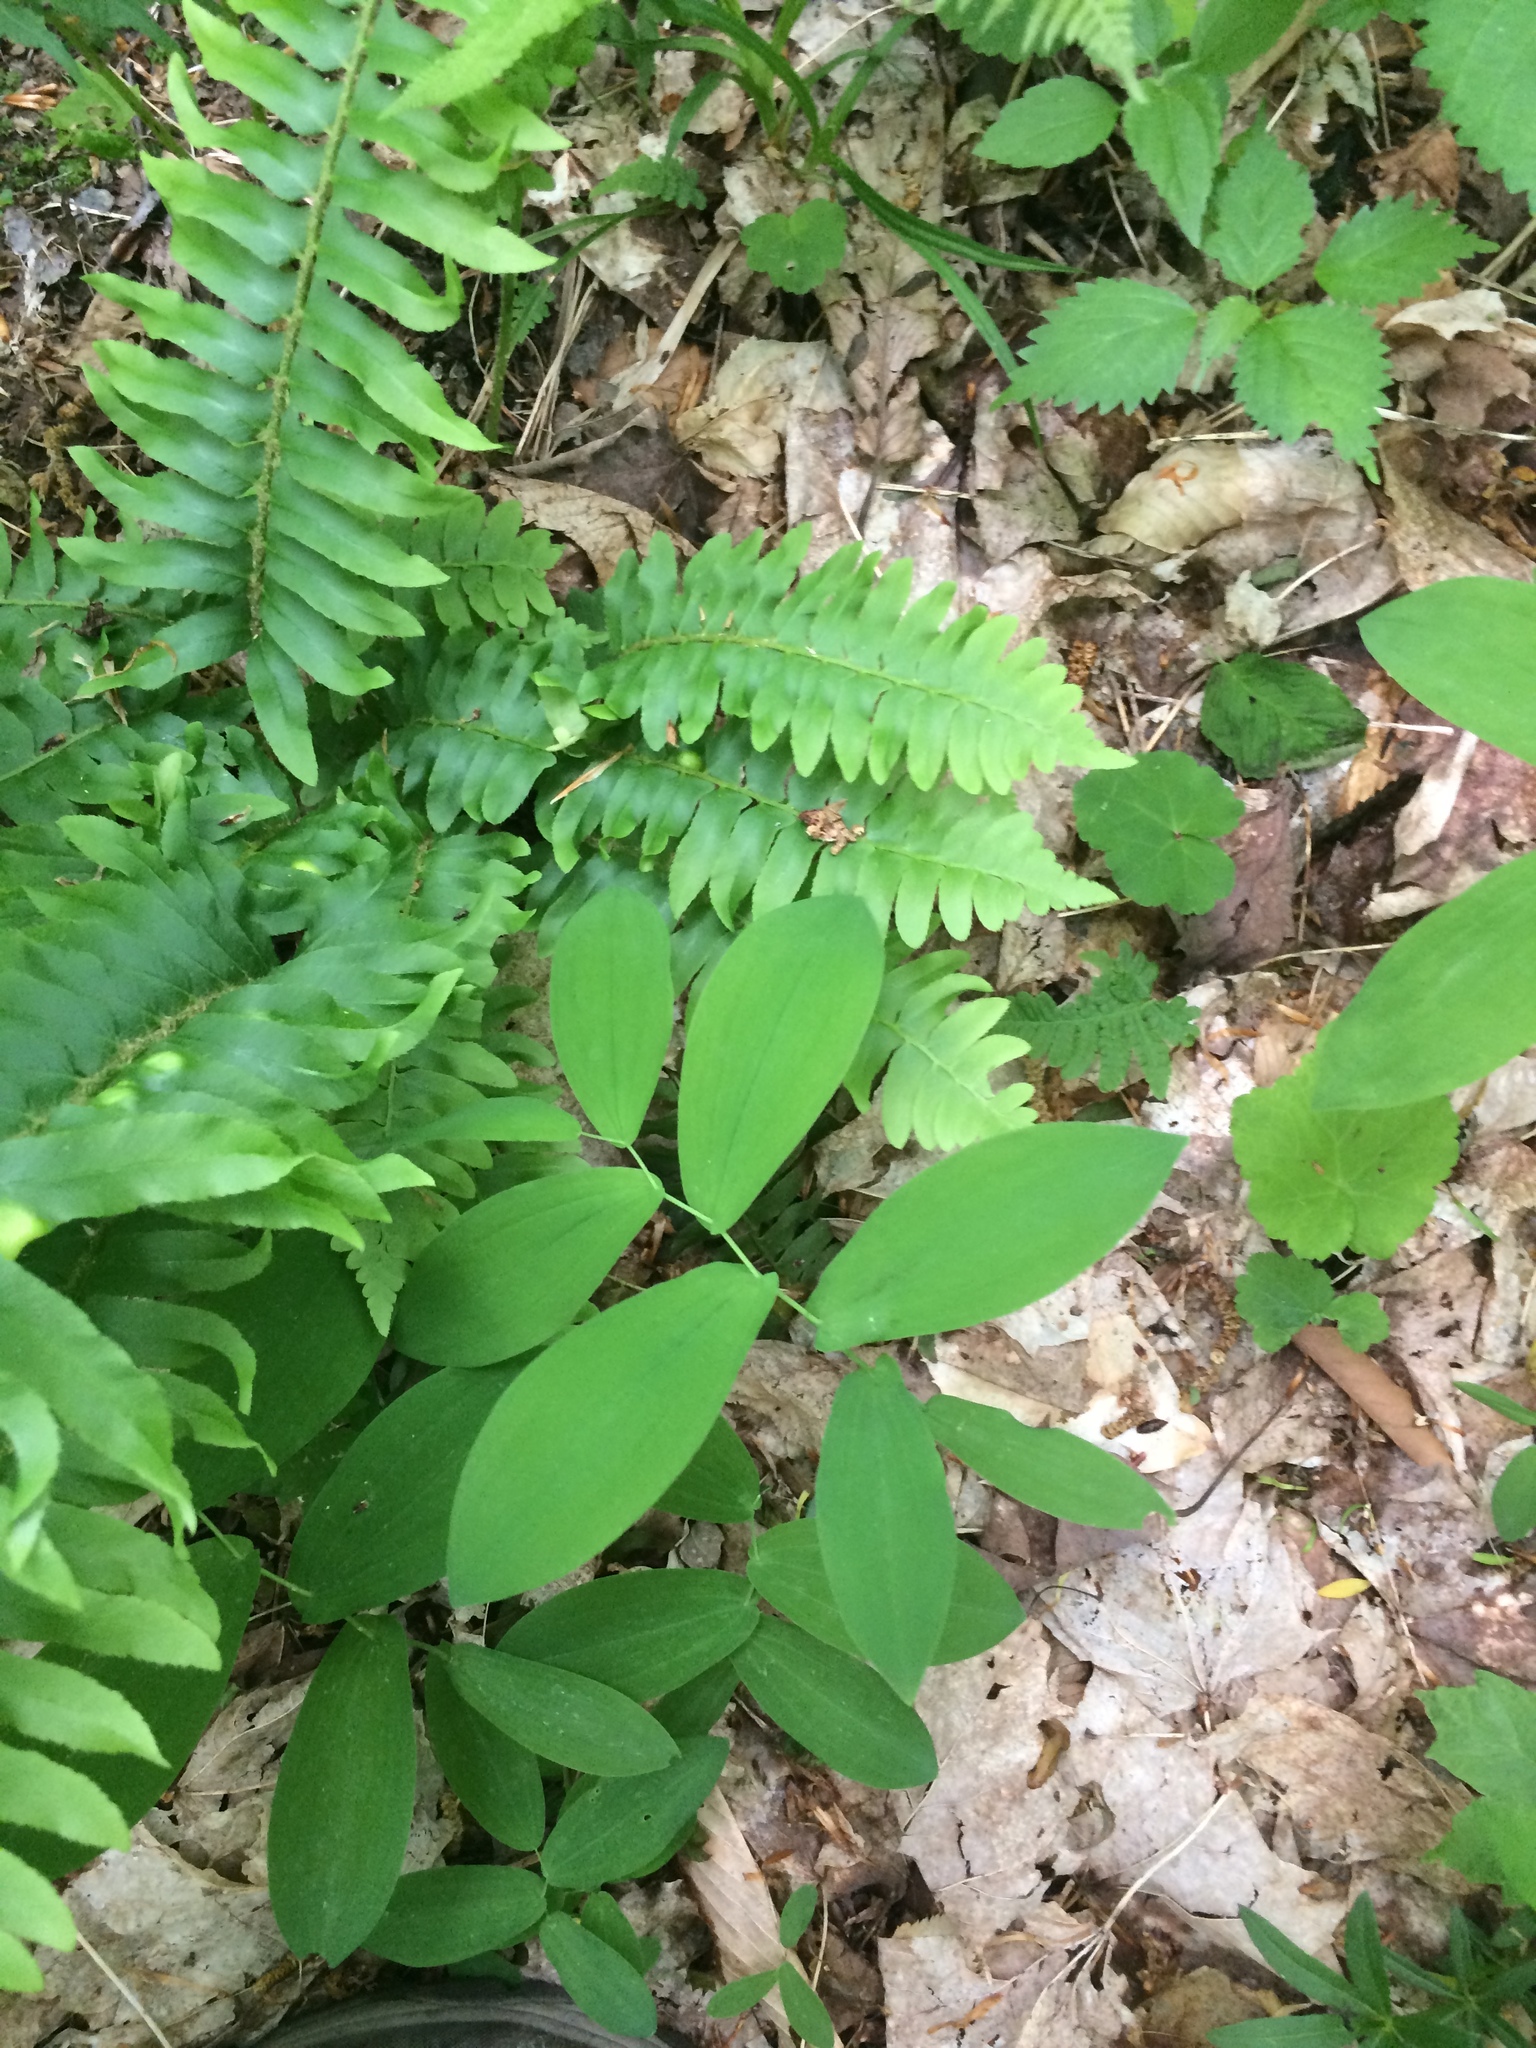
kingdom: Plantae
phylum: Tracheophyta
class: Liliopsida
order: Liliales
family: Colchicaceae
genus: Uvularia
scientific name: Uvularia grandiflora
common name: Bellwort
